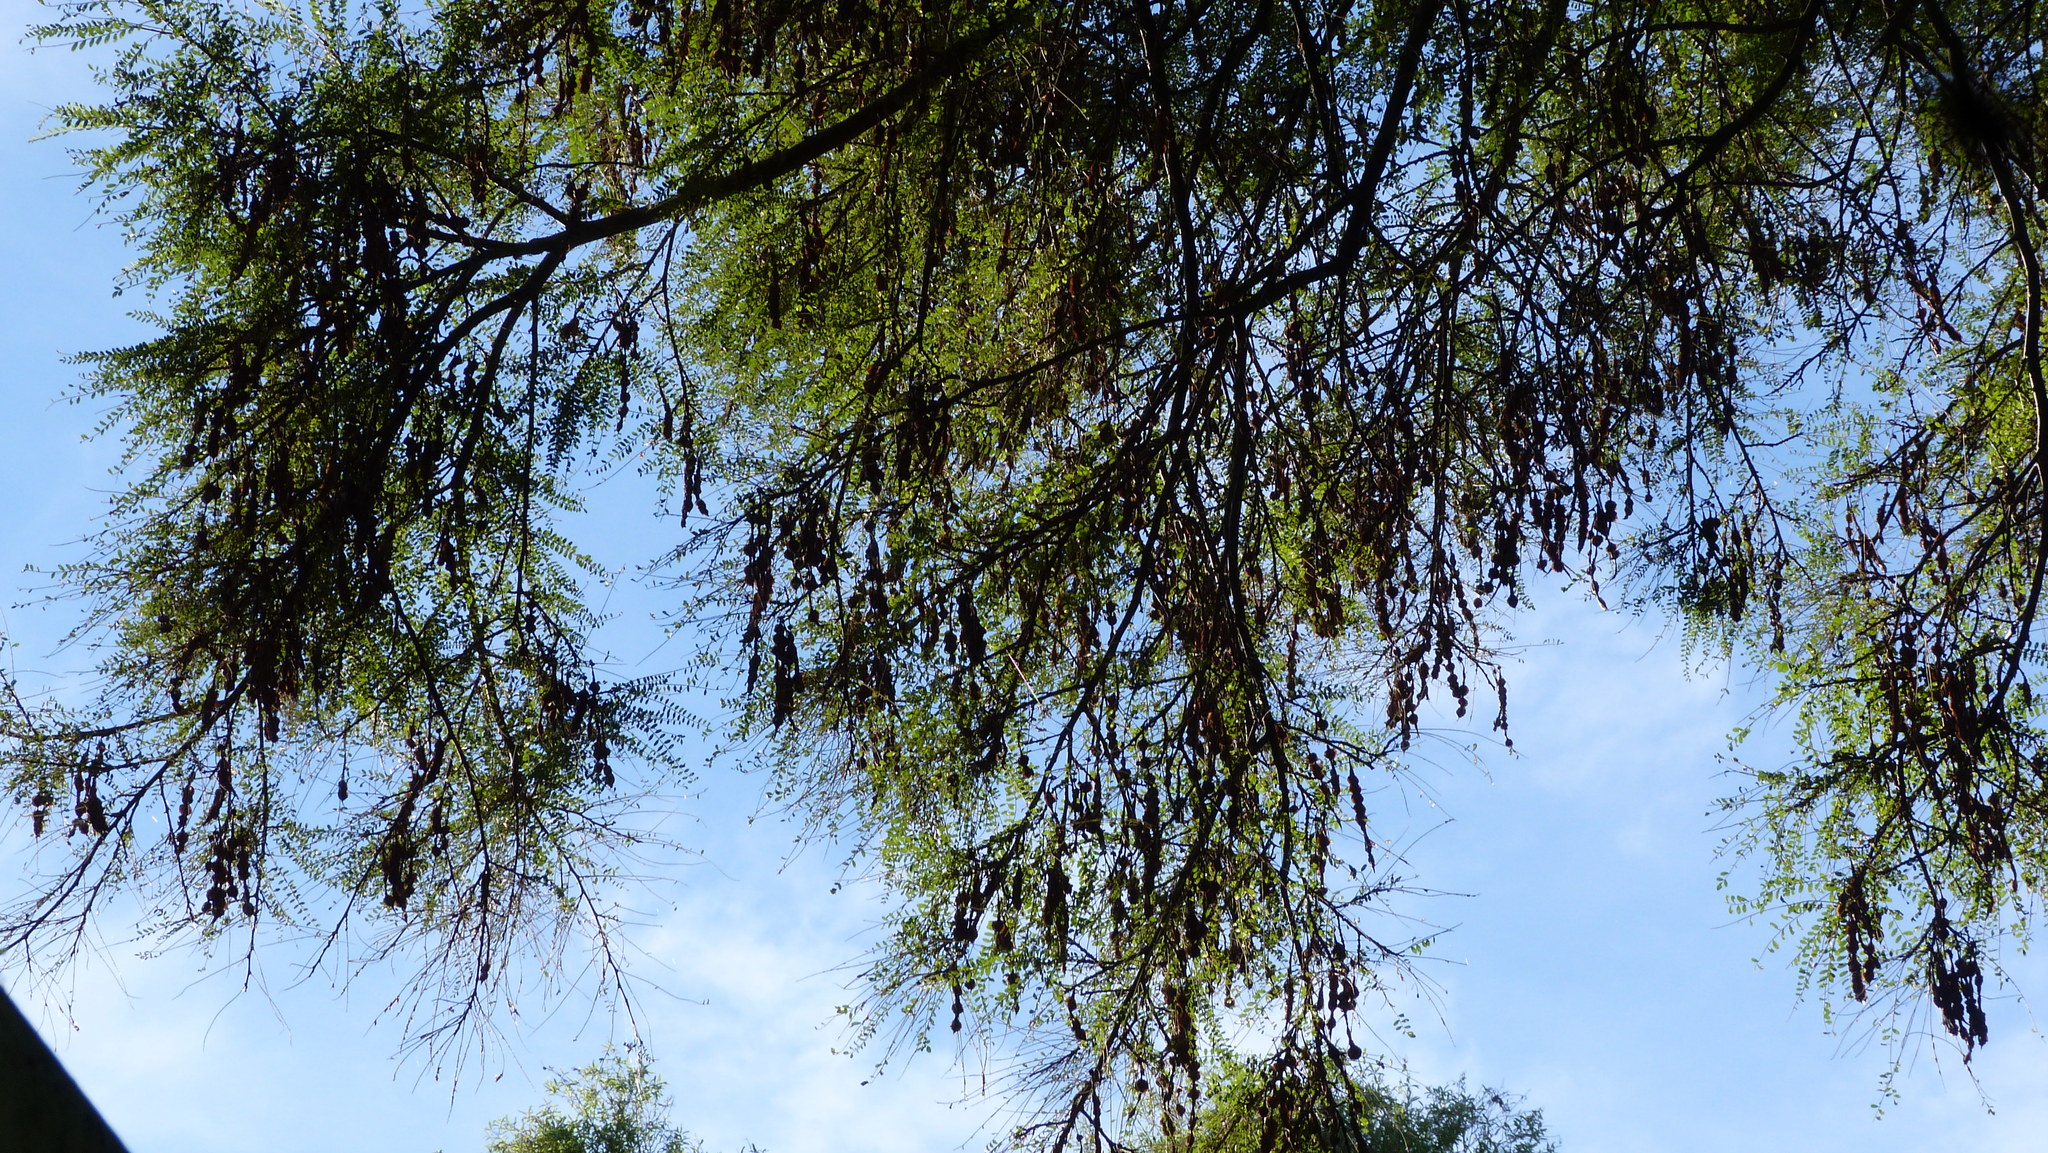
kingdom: Plantae
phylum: Tracheophyta
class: Magnoliopsida
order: Fabales
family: Fabaceae
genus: Sophora
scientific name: Sophora microphylla
